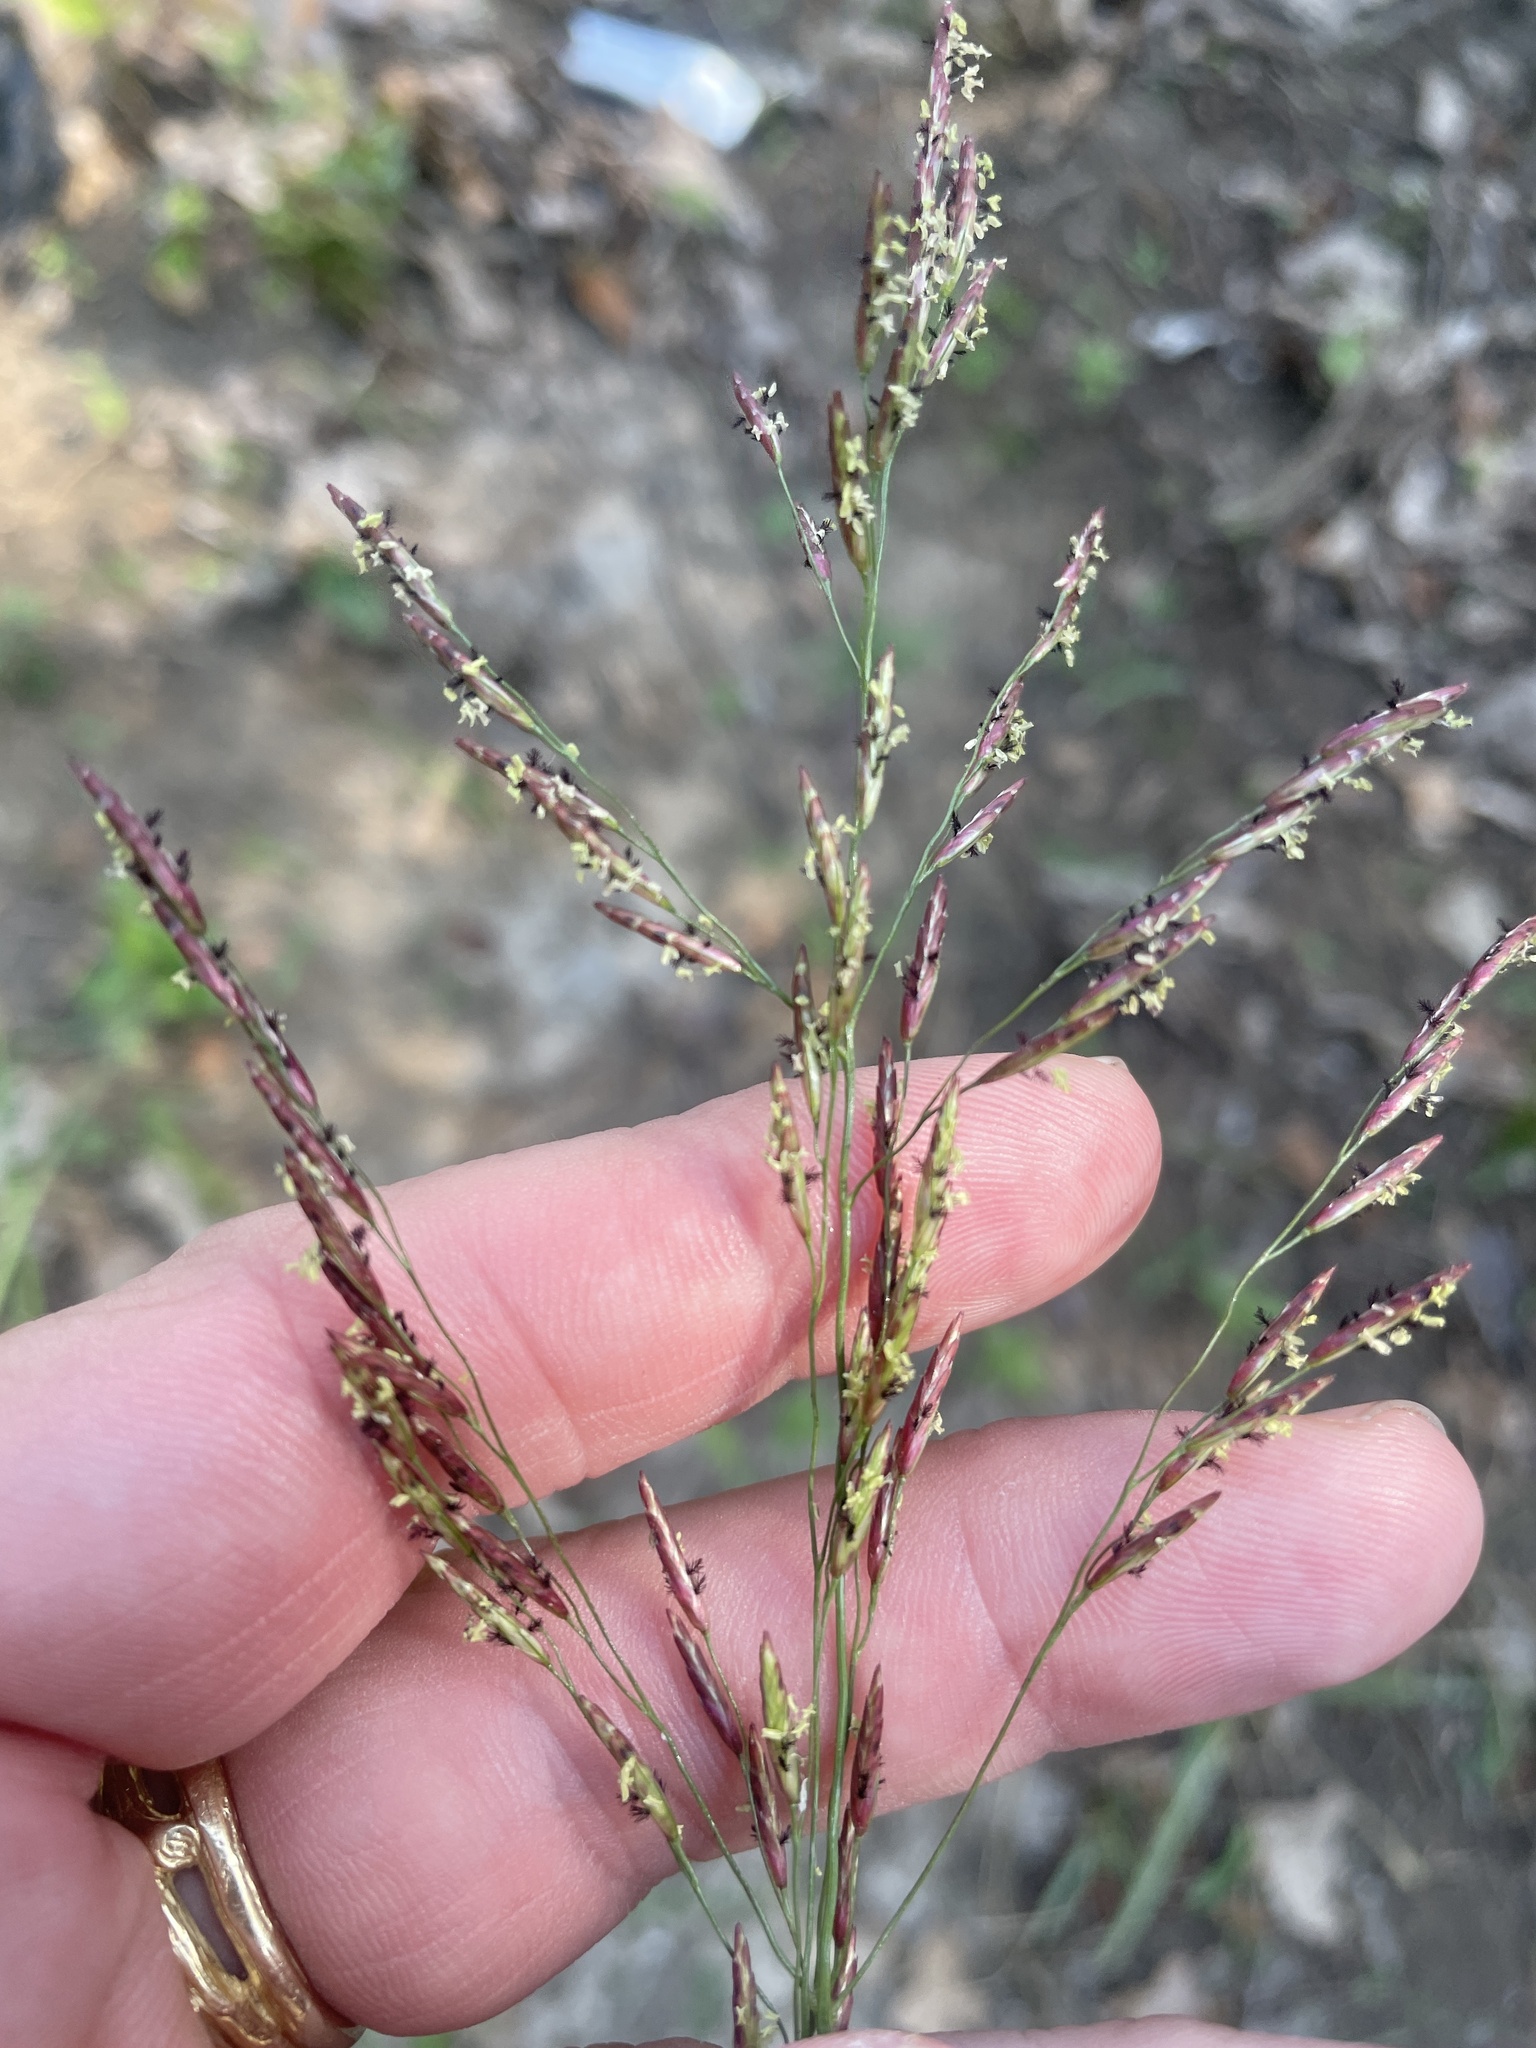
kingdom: Plantae
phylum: Tracheophyta
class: Liliopsida
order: Poales
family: Poaceae
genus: Tridens
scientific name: Tridens flavus
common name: Purpletop
